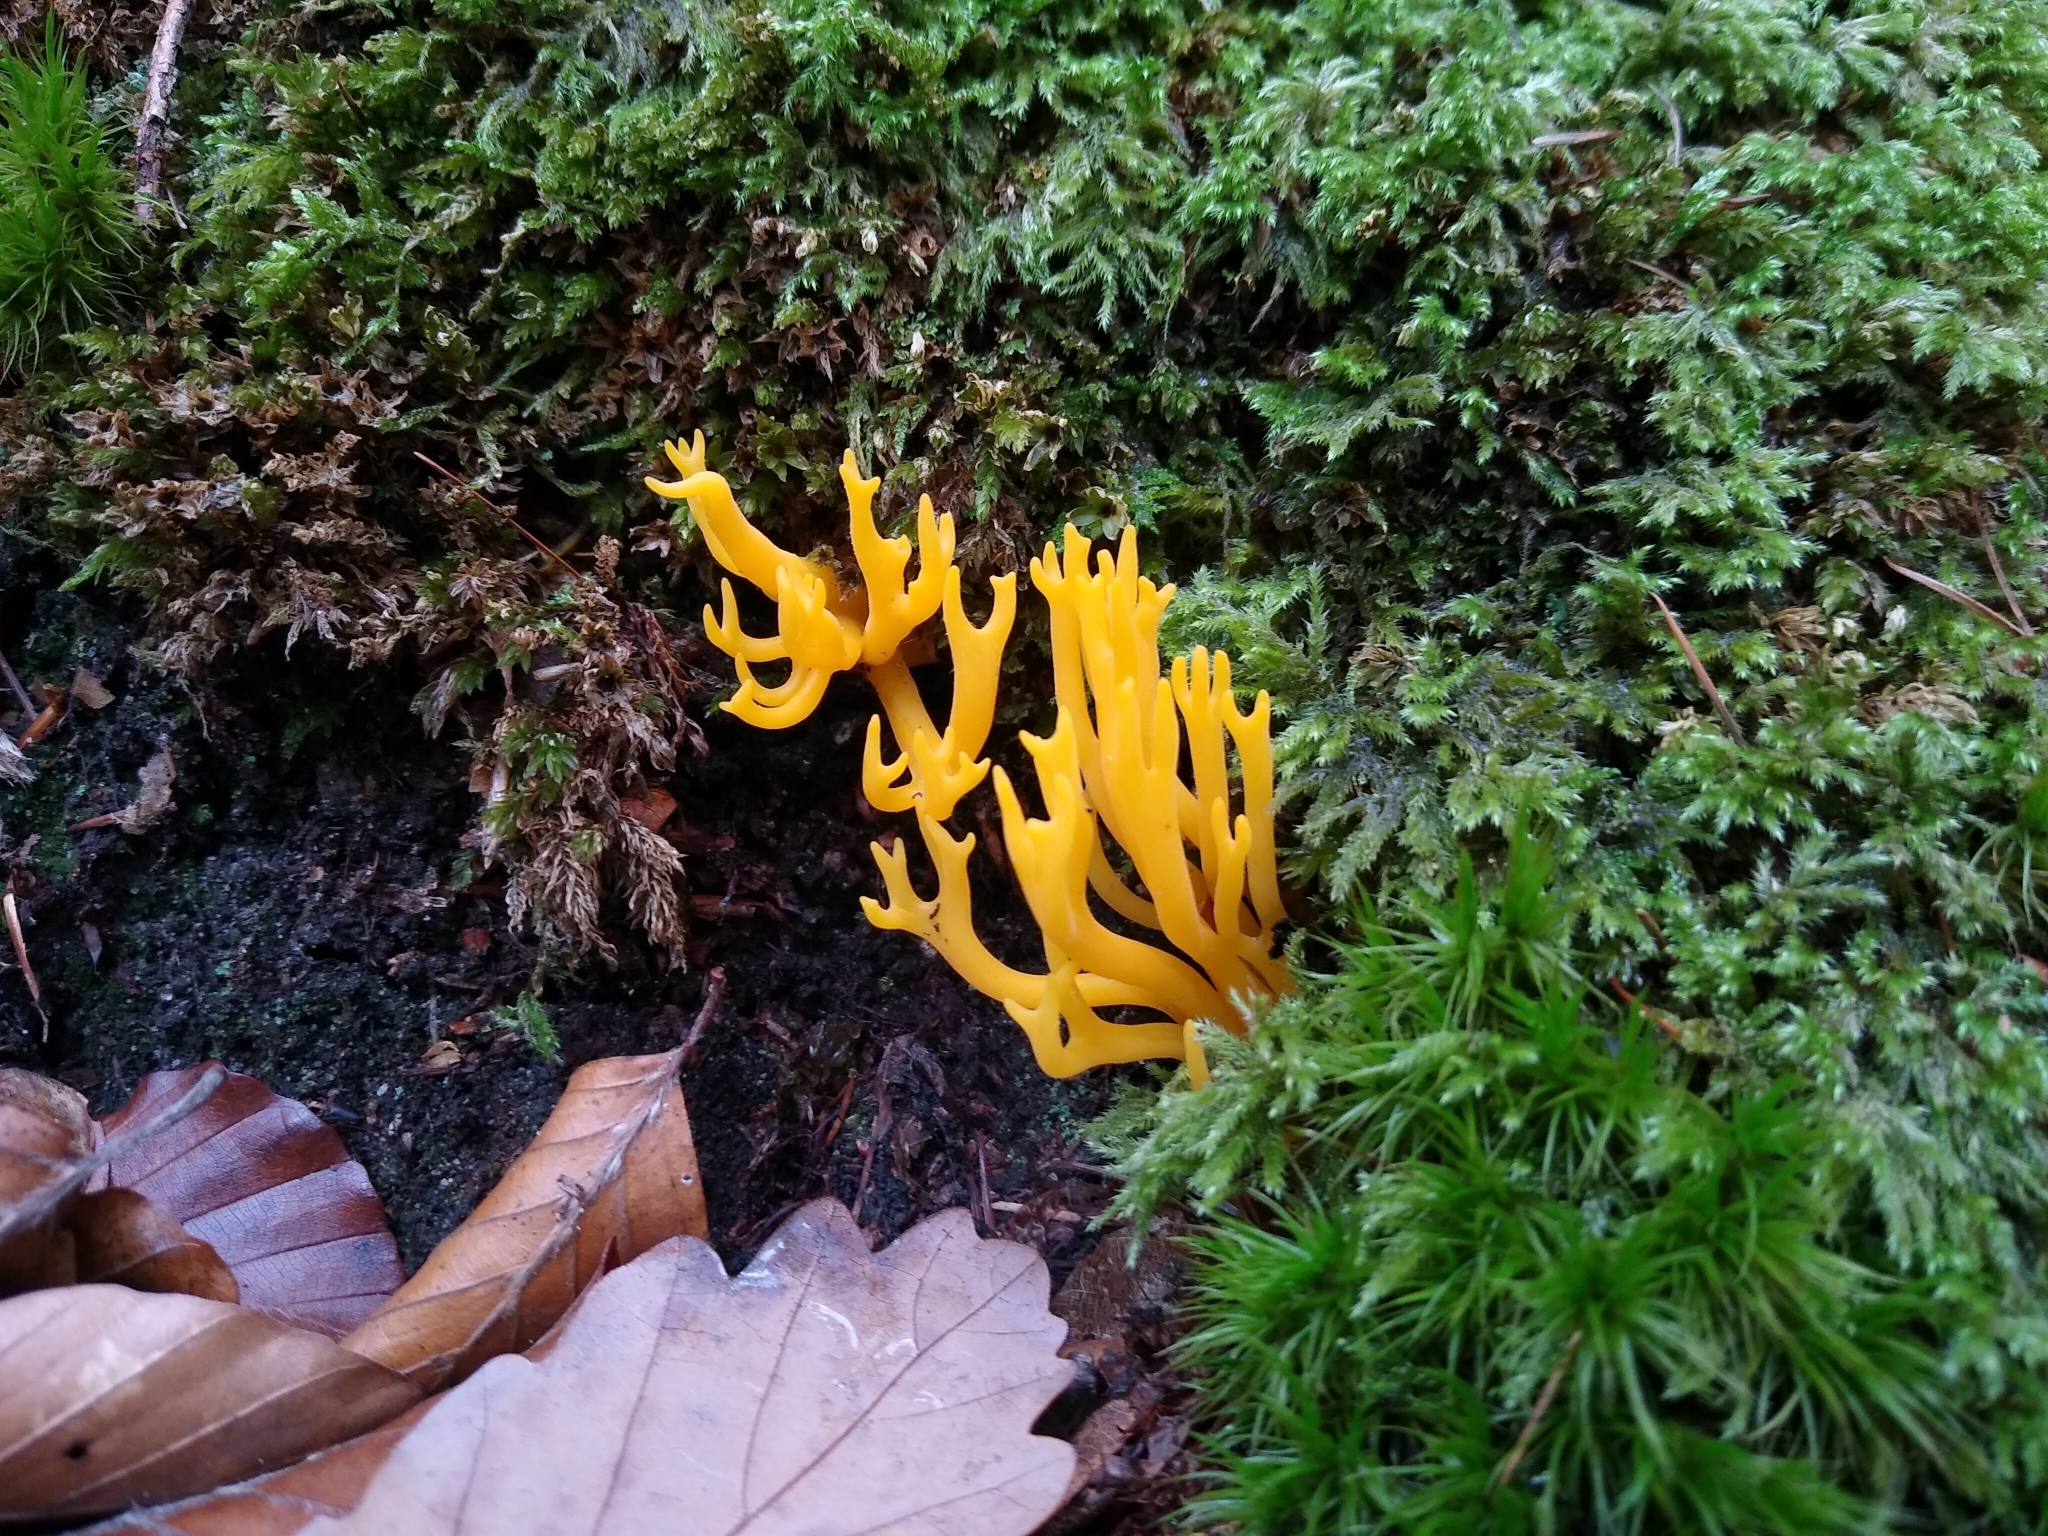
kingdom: Fungi
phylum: Basidiomycota
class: Dacrymycetes
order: Dacrymycetales
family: Dacrymycetaceae
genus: Calocera
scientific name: Calocera viscosa
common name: Yellow stagshorn
